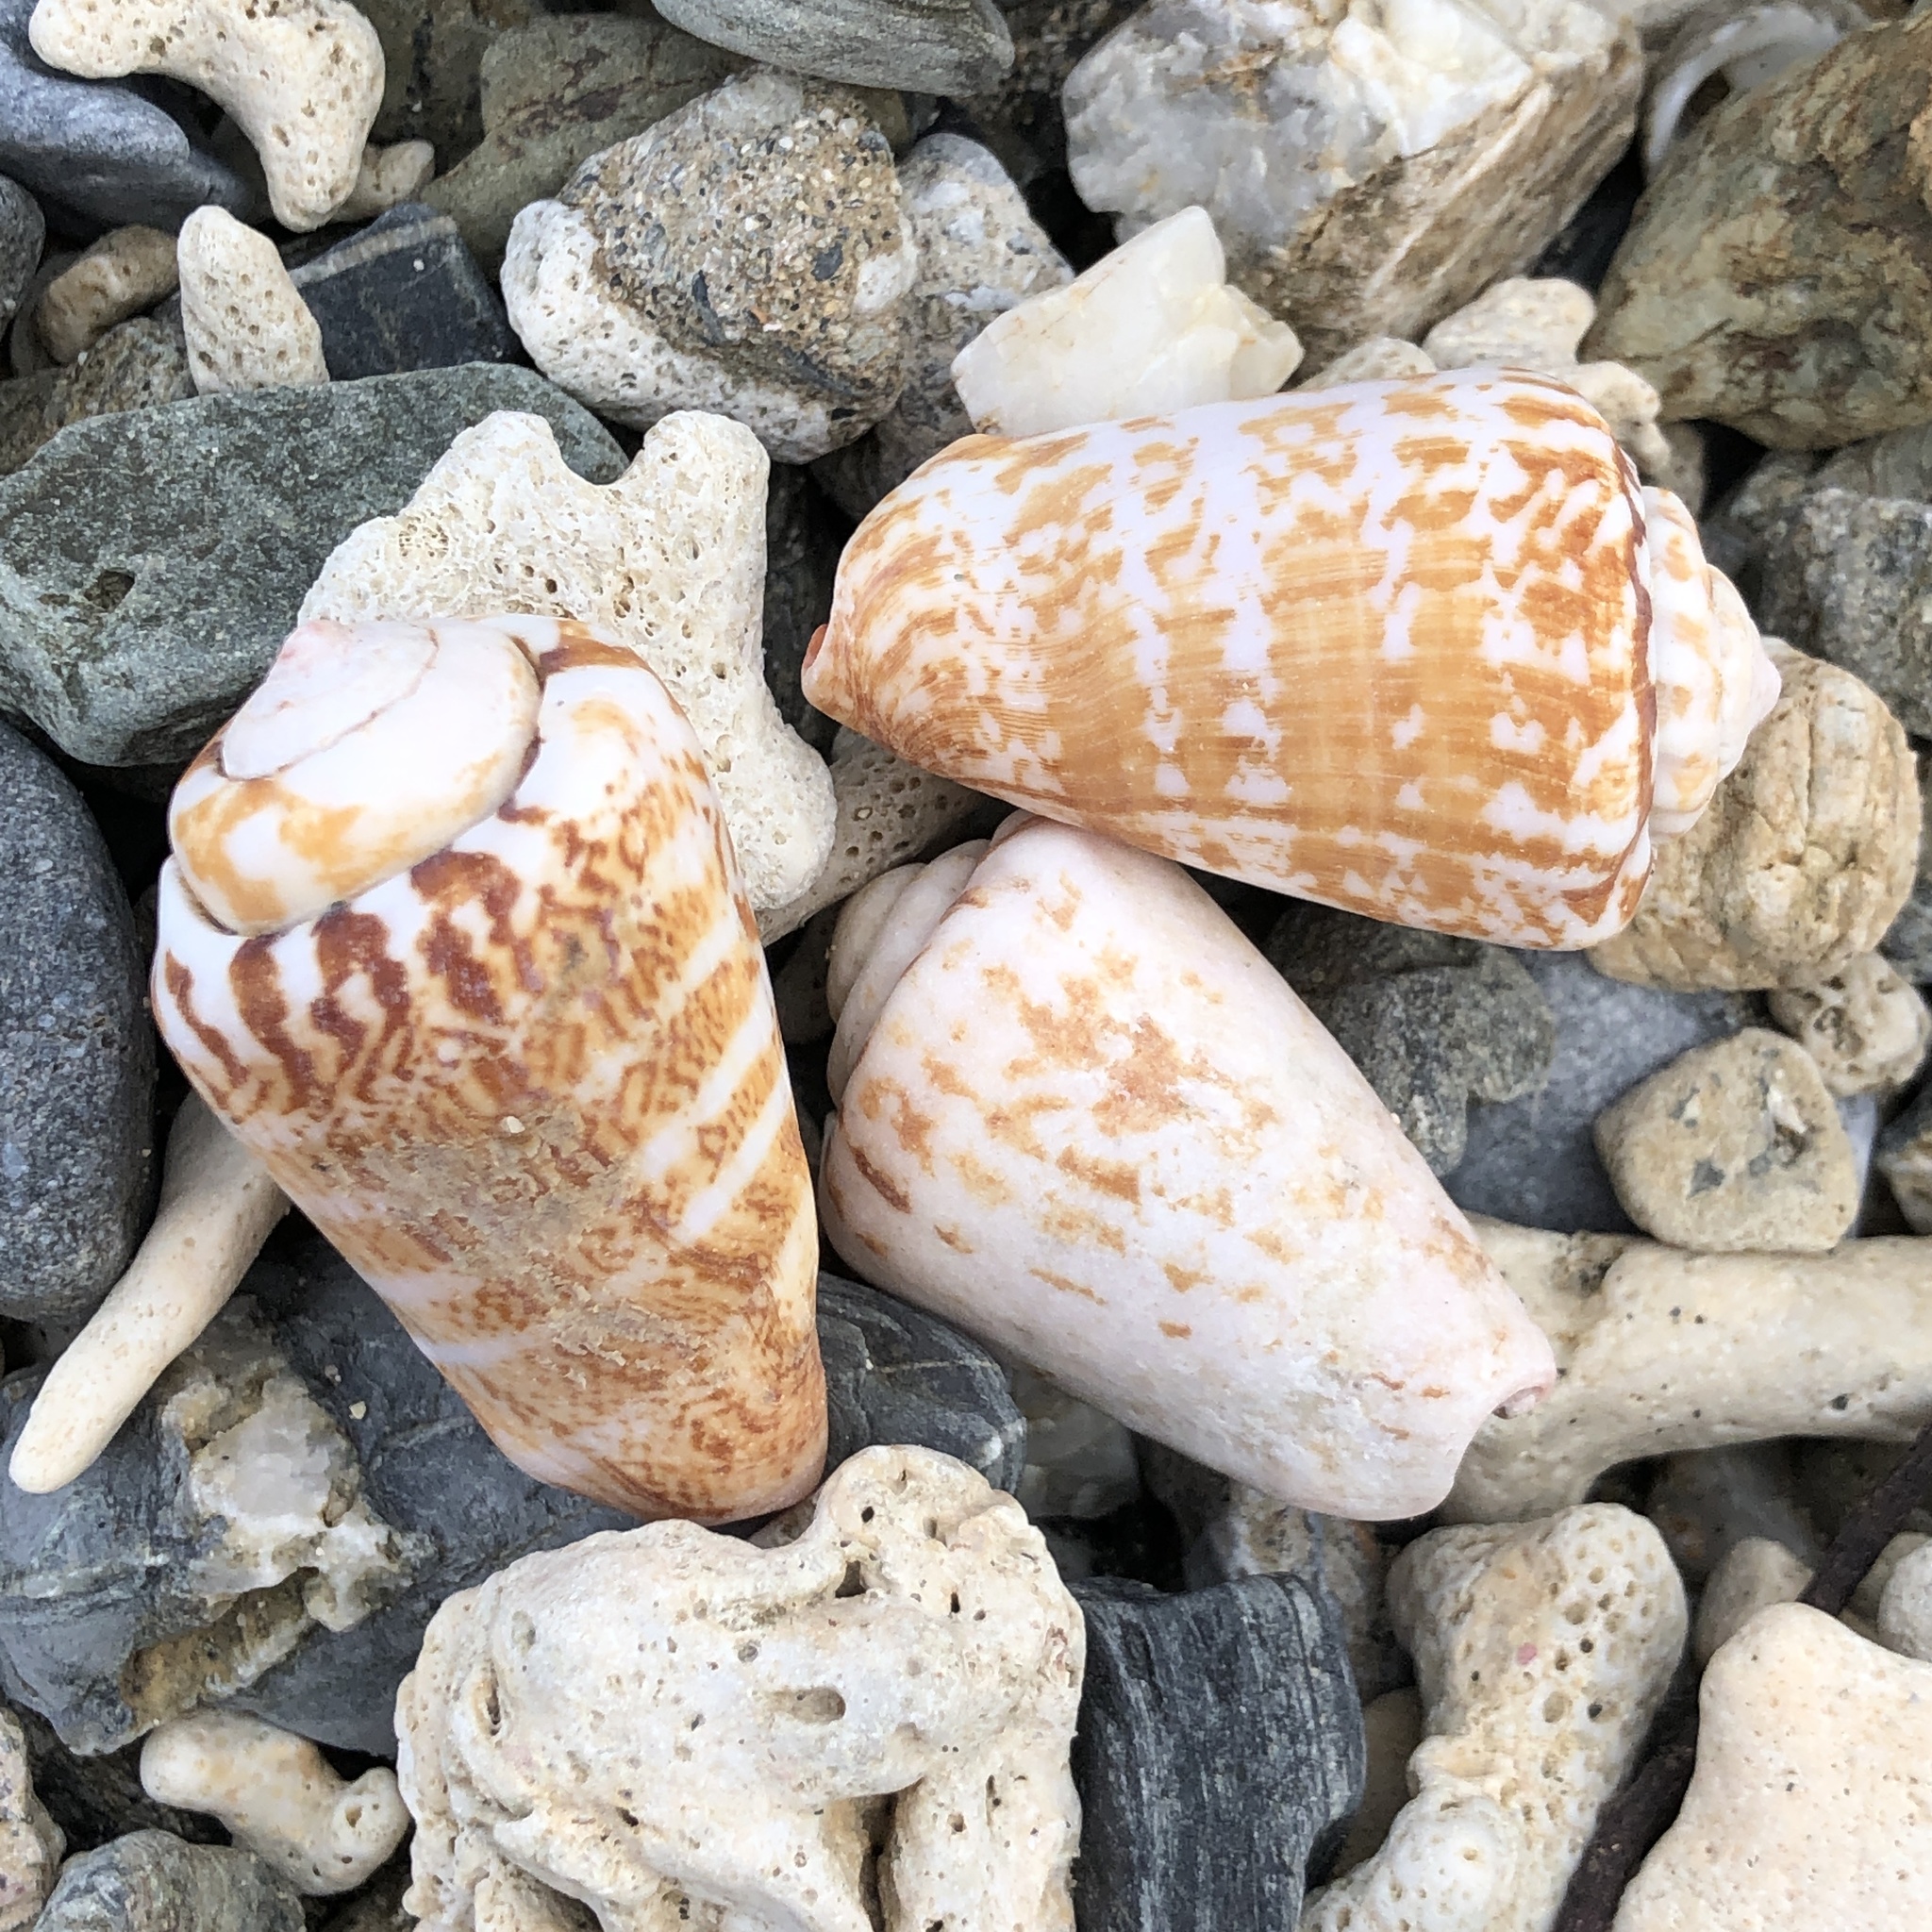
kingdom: Animalia
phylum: Mollusca
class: Gastropoda
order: Littorinimorpha
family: Strombidae
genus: Conomurex
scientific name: Conomurex luhuanus
